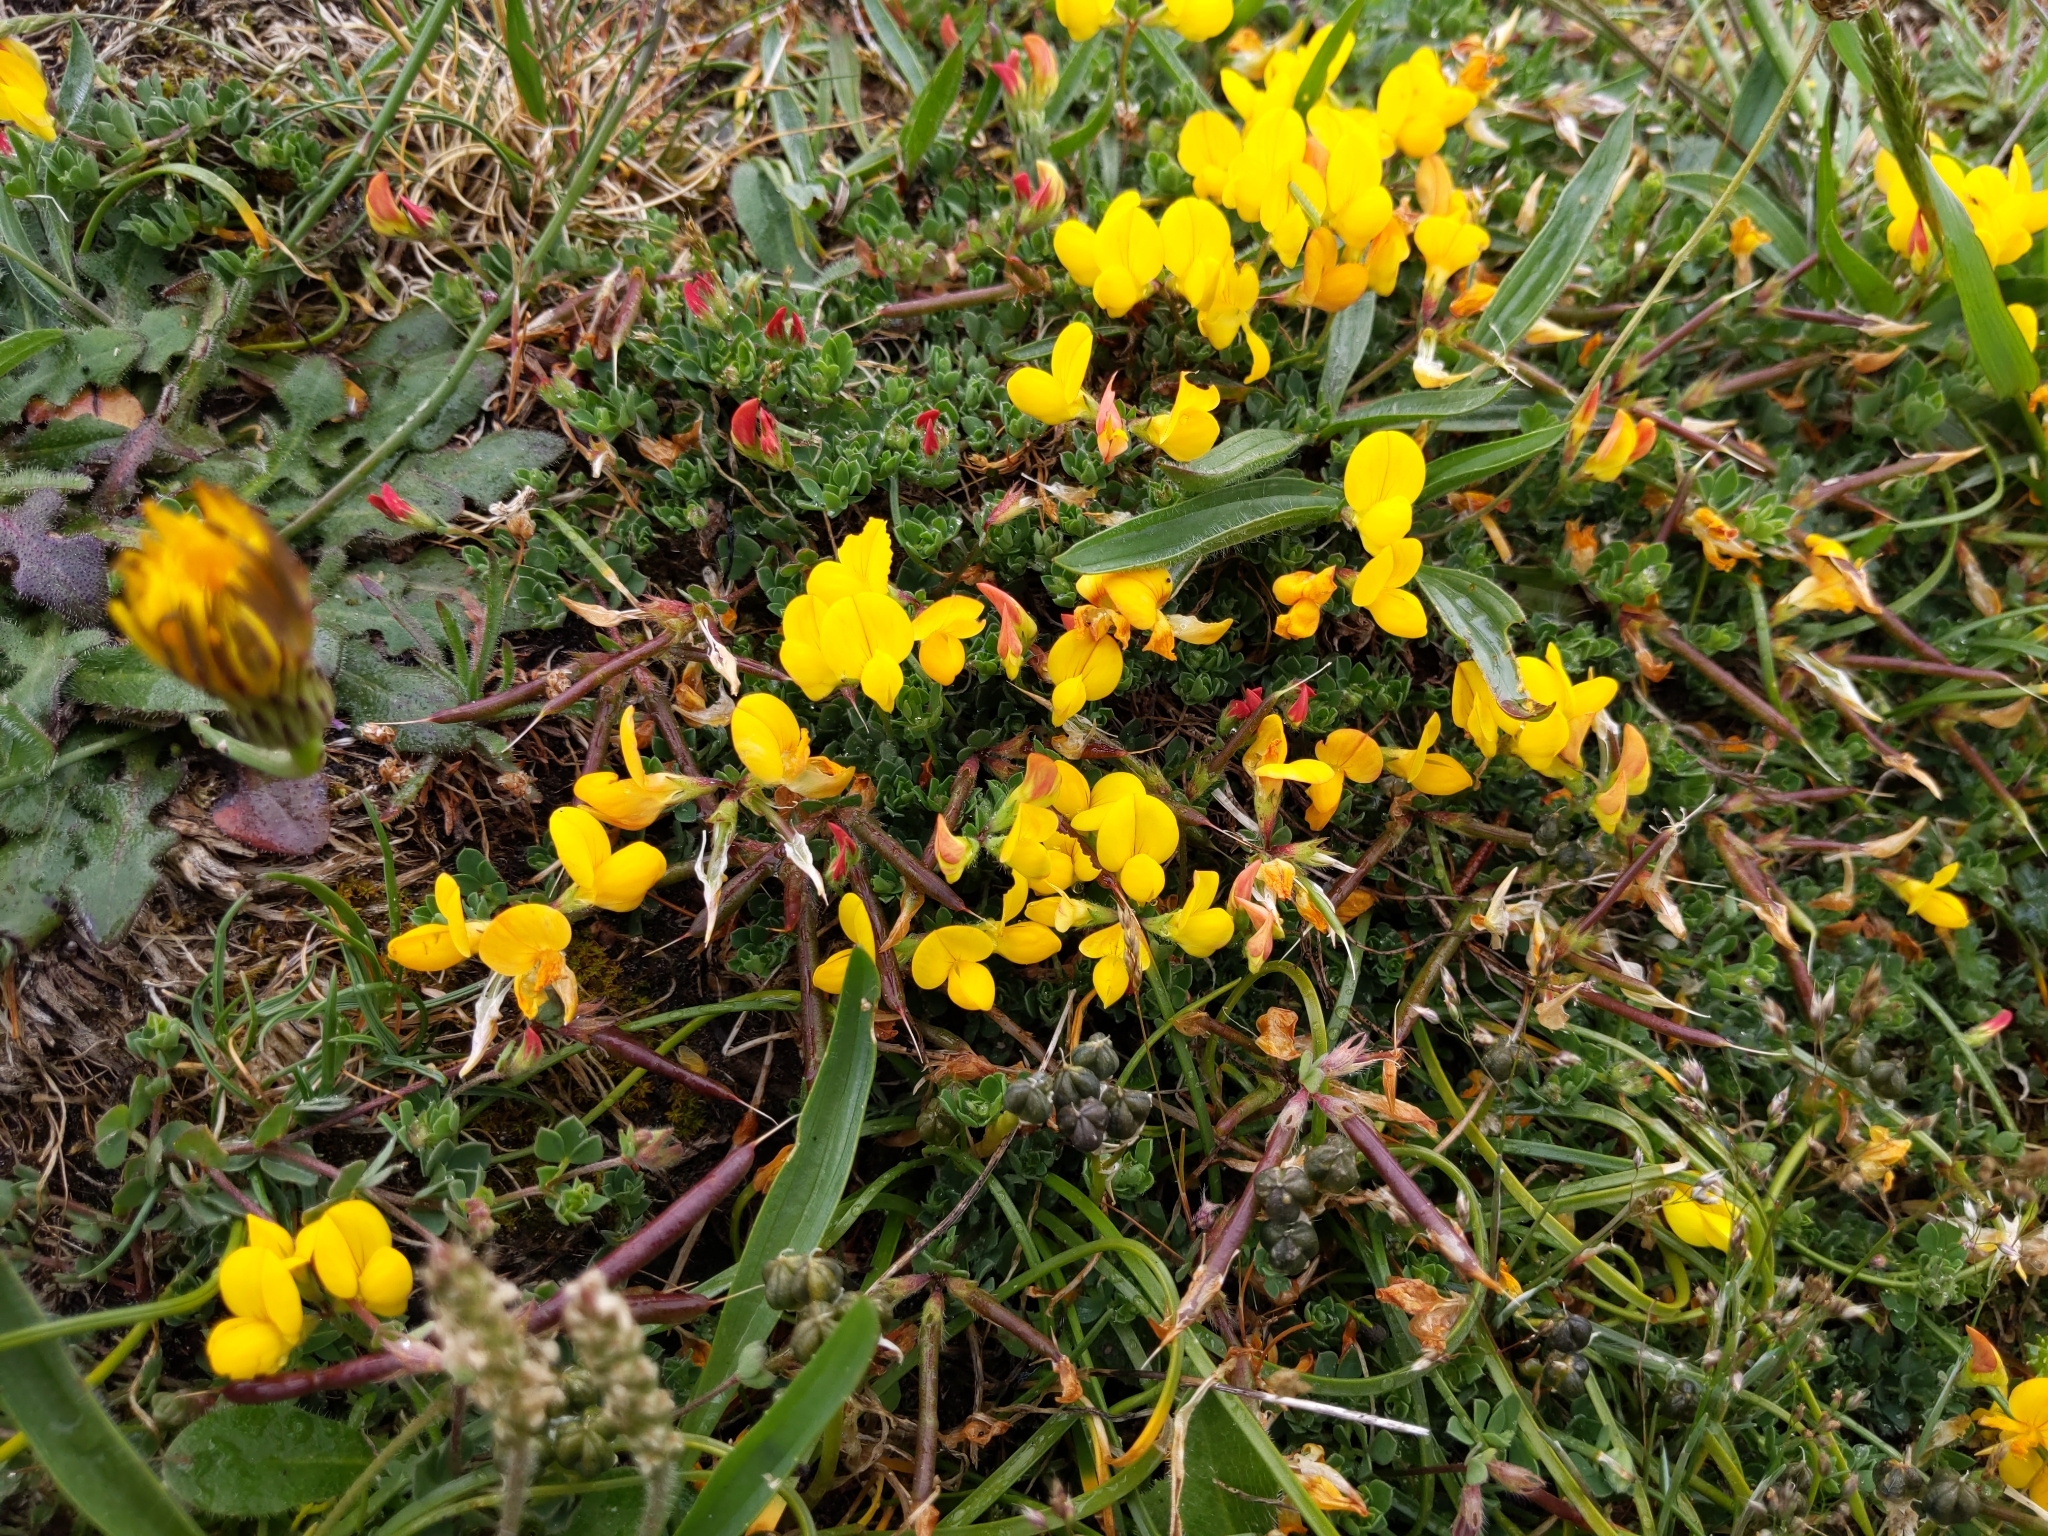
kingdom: Plantae
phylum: Tracheophyta
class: Magnoliopsida
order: Fabales
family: Fabaceae
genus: Lotus
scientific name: Lotus corniculatus
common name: Common bird's-foot-trefoil
